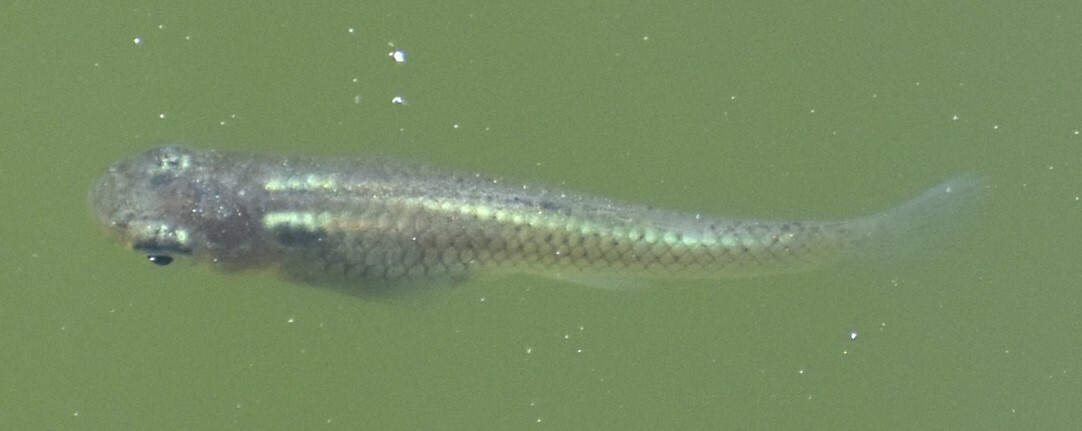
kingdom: Animalia
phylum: Chordata
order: Cyprinodontiformes
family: Poeciliidae
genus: Gambusia
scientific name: Gambusia affinis
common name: Mosquitofish
